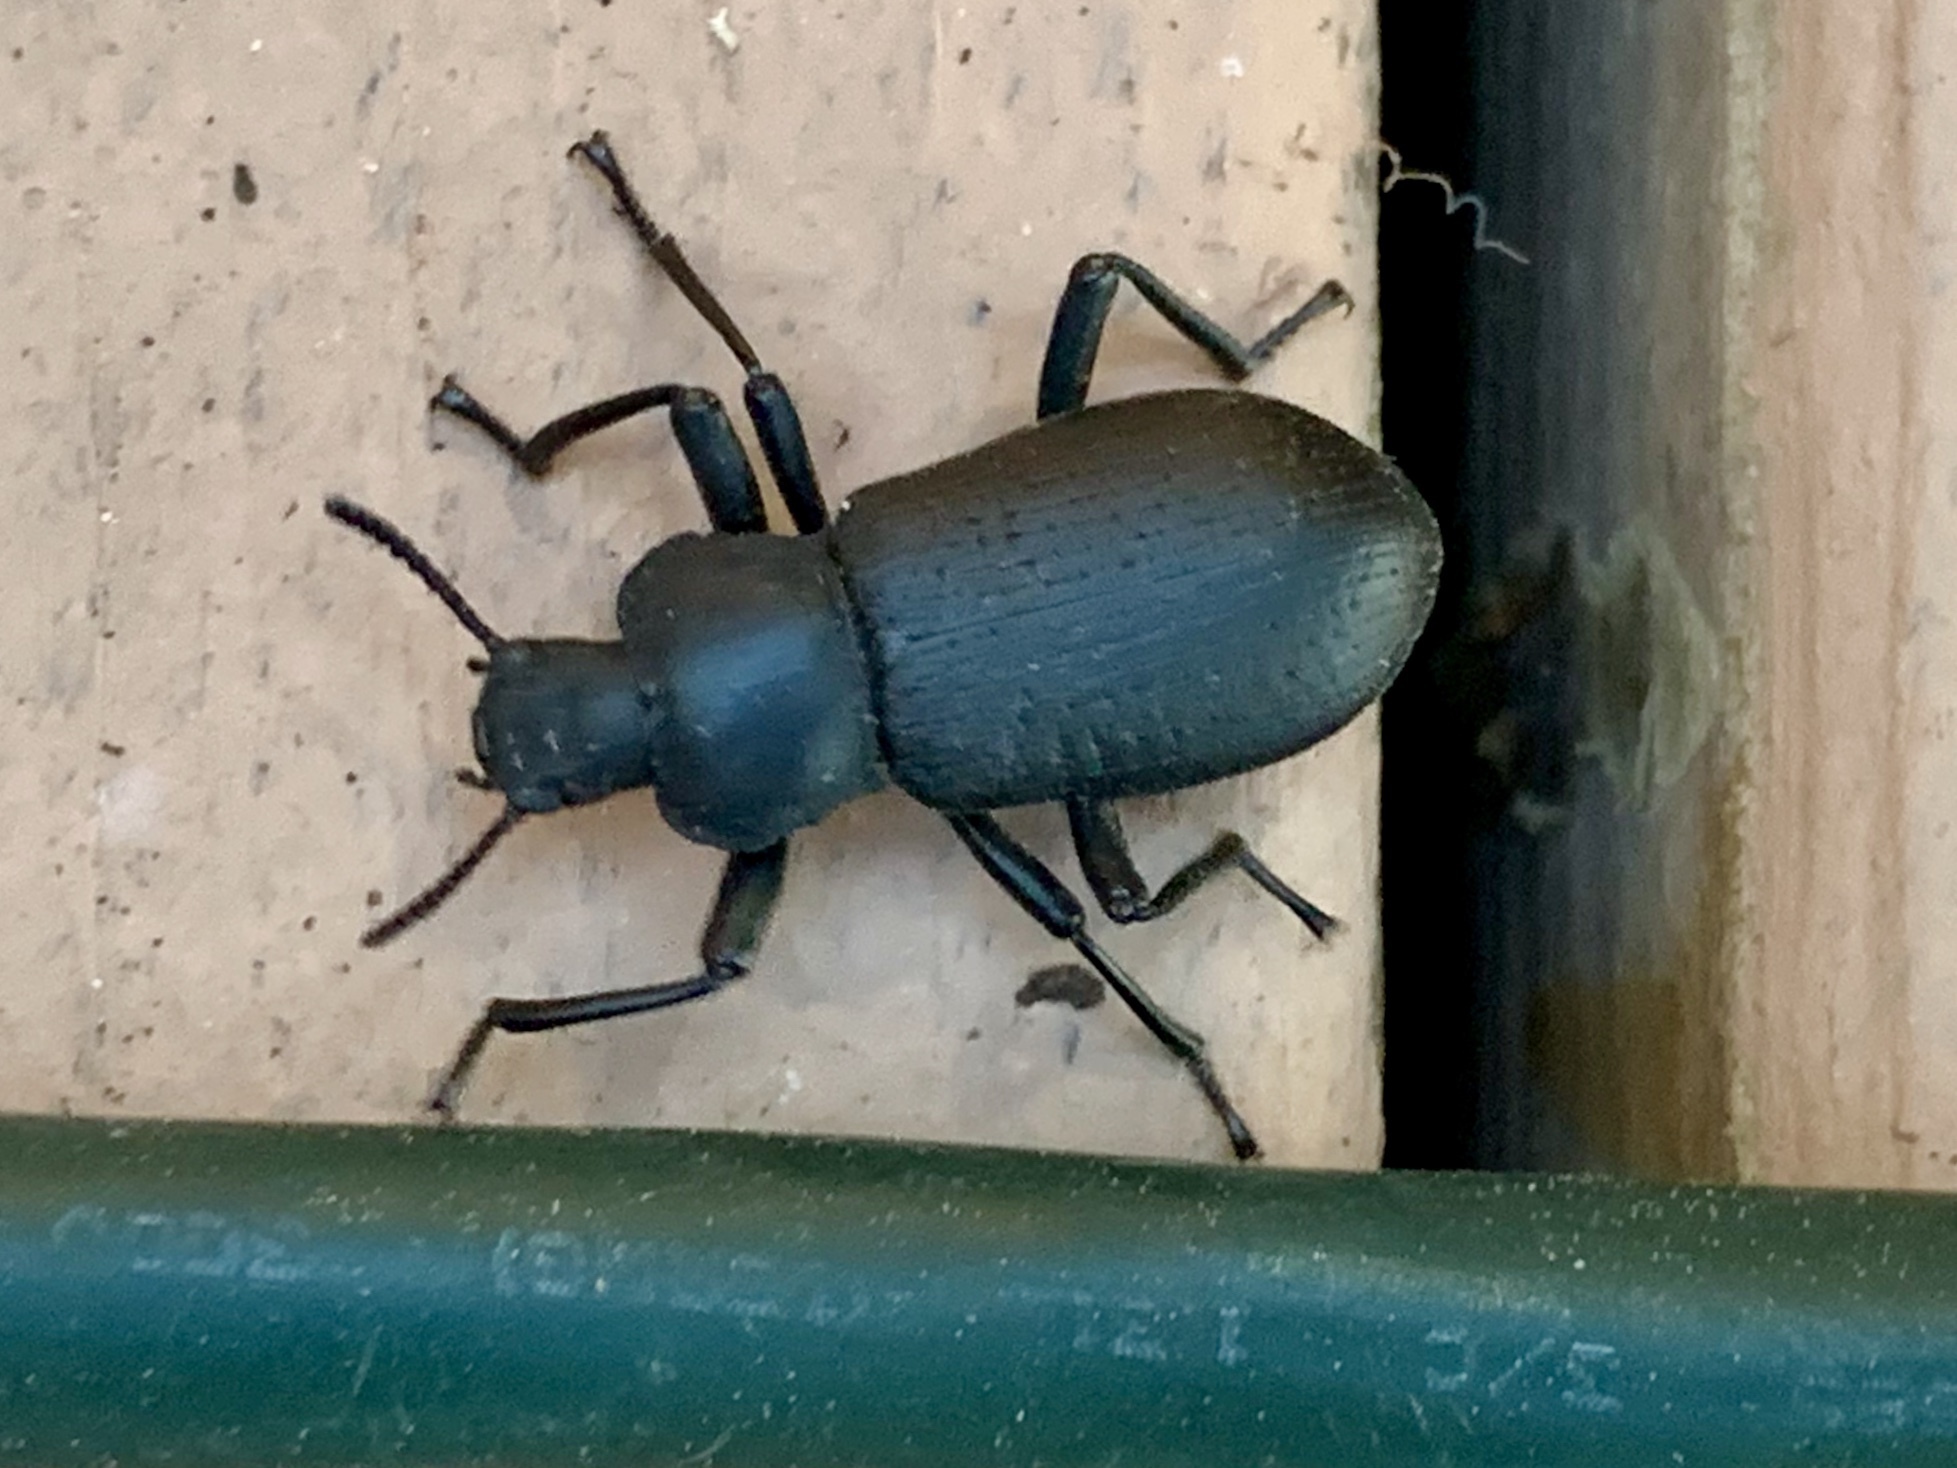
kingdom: Animalia
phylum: Arthropoda
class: Insecta
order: Coleoptera
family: Tenebrionidae
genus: Iphthiminus
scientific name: Iphthiminus lewisii
